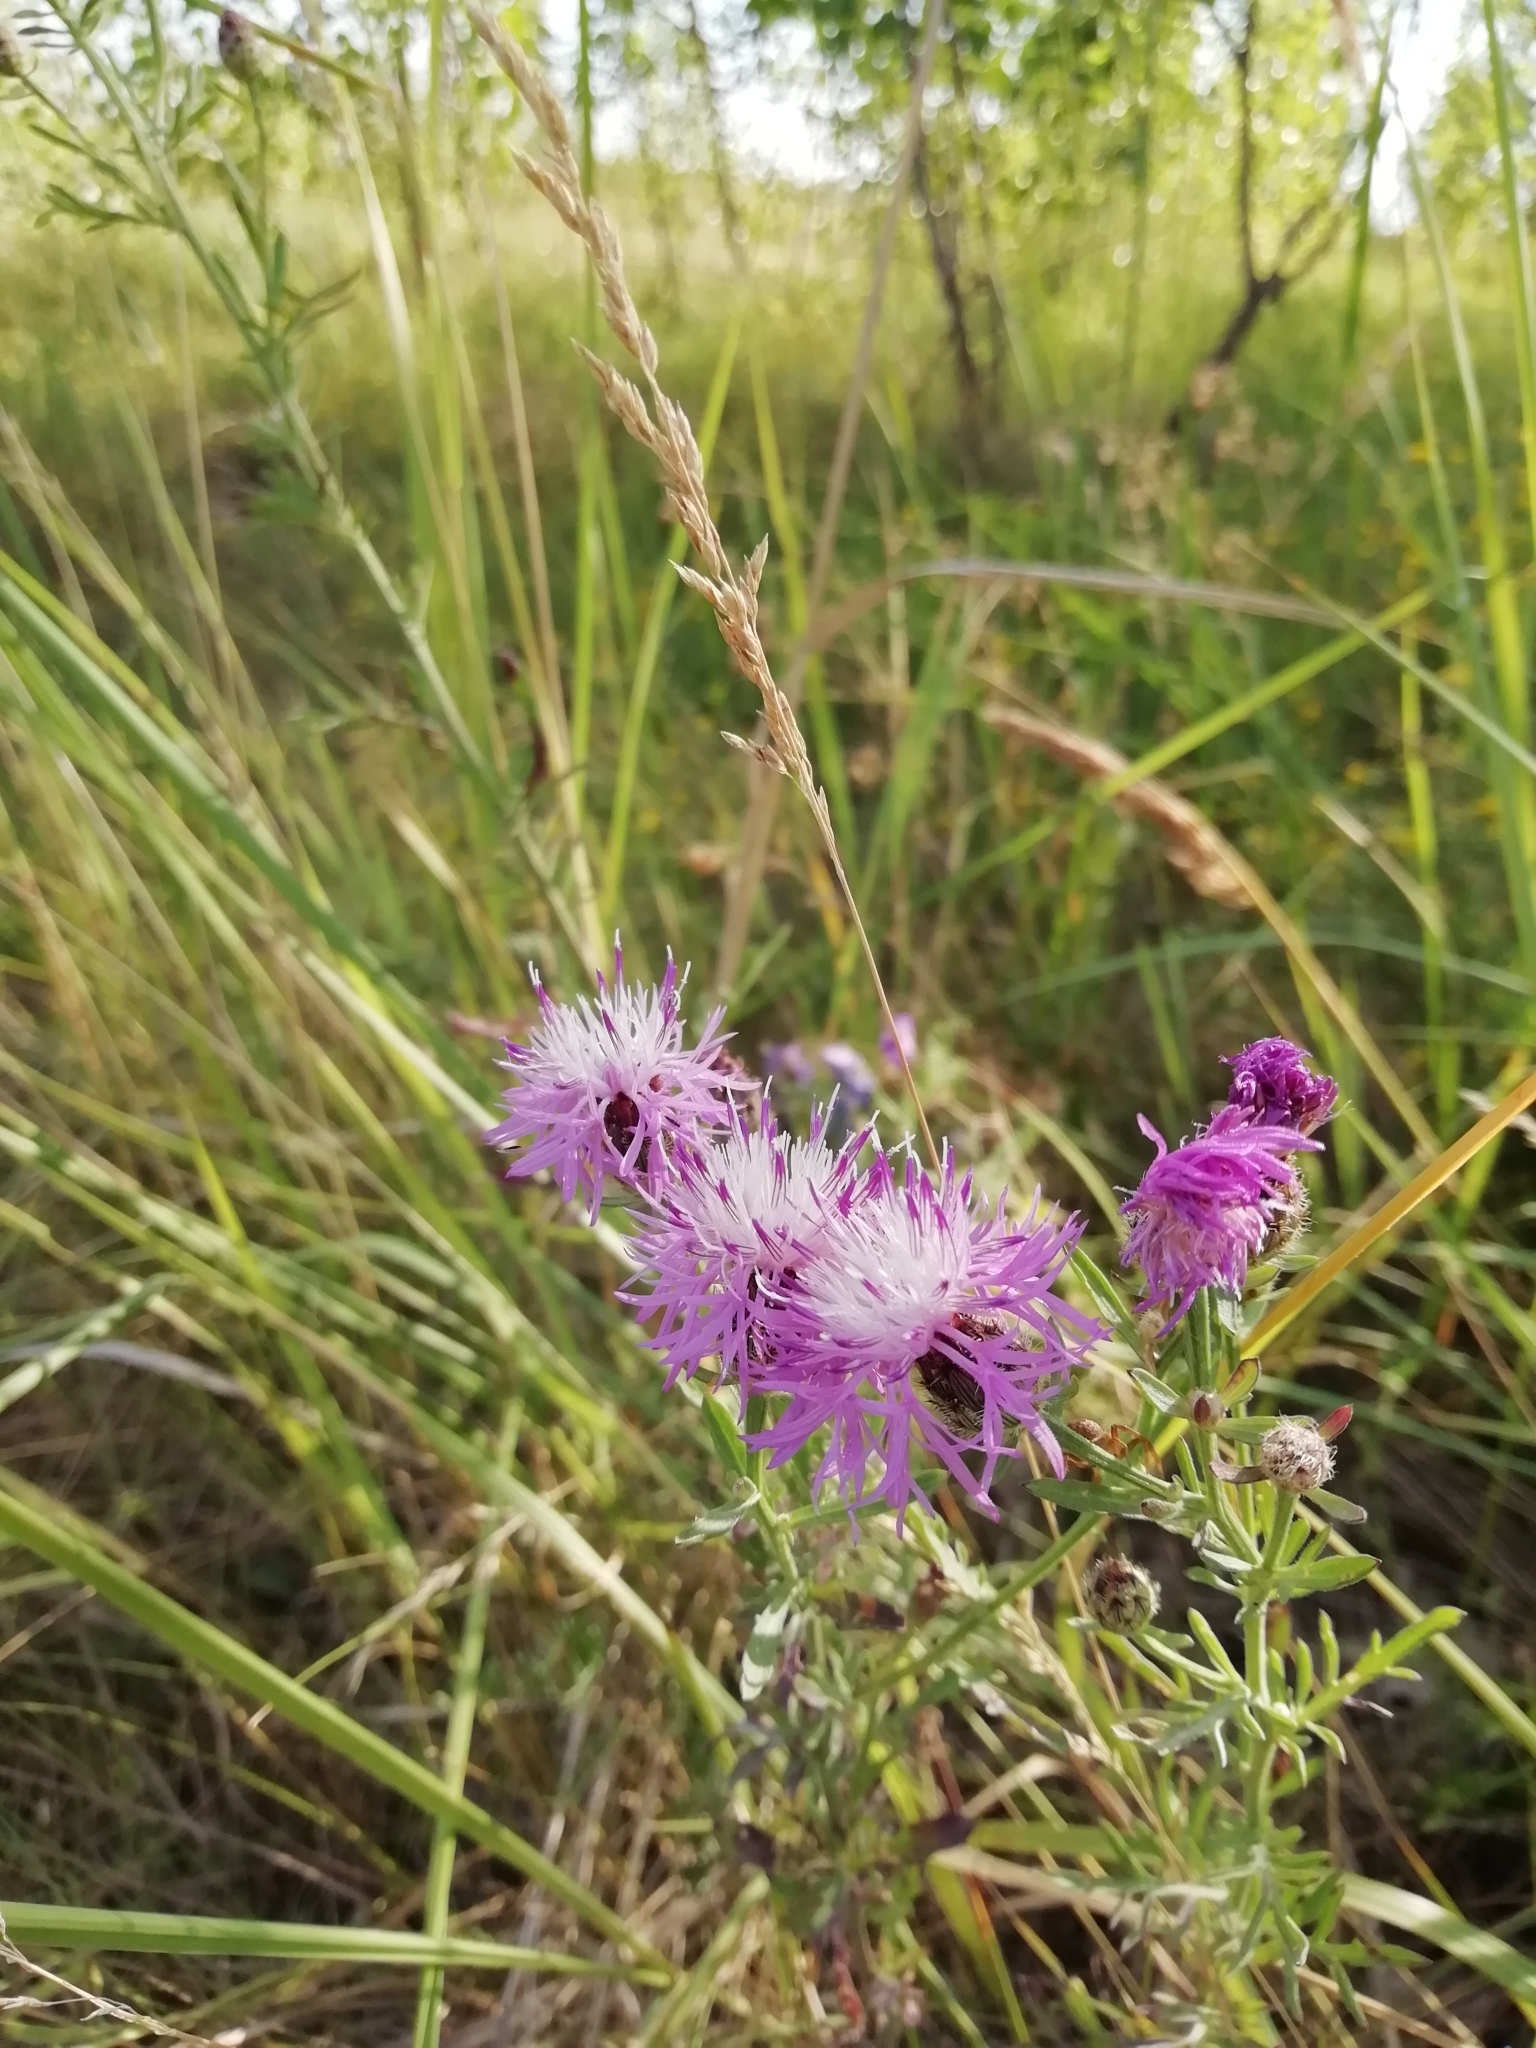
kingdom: Plantae
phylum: Tracheophyta
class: Magnoliopsida
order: Asterales
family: Asteraceae
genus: Centaurea
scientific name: Centaurea stoebe
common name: Spotted knapweed
